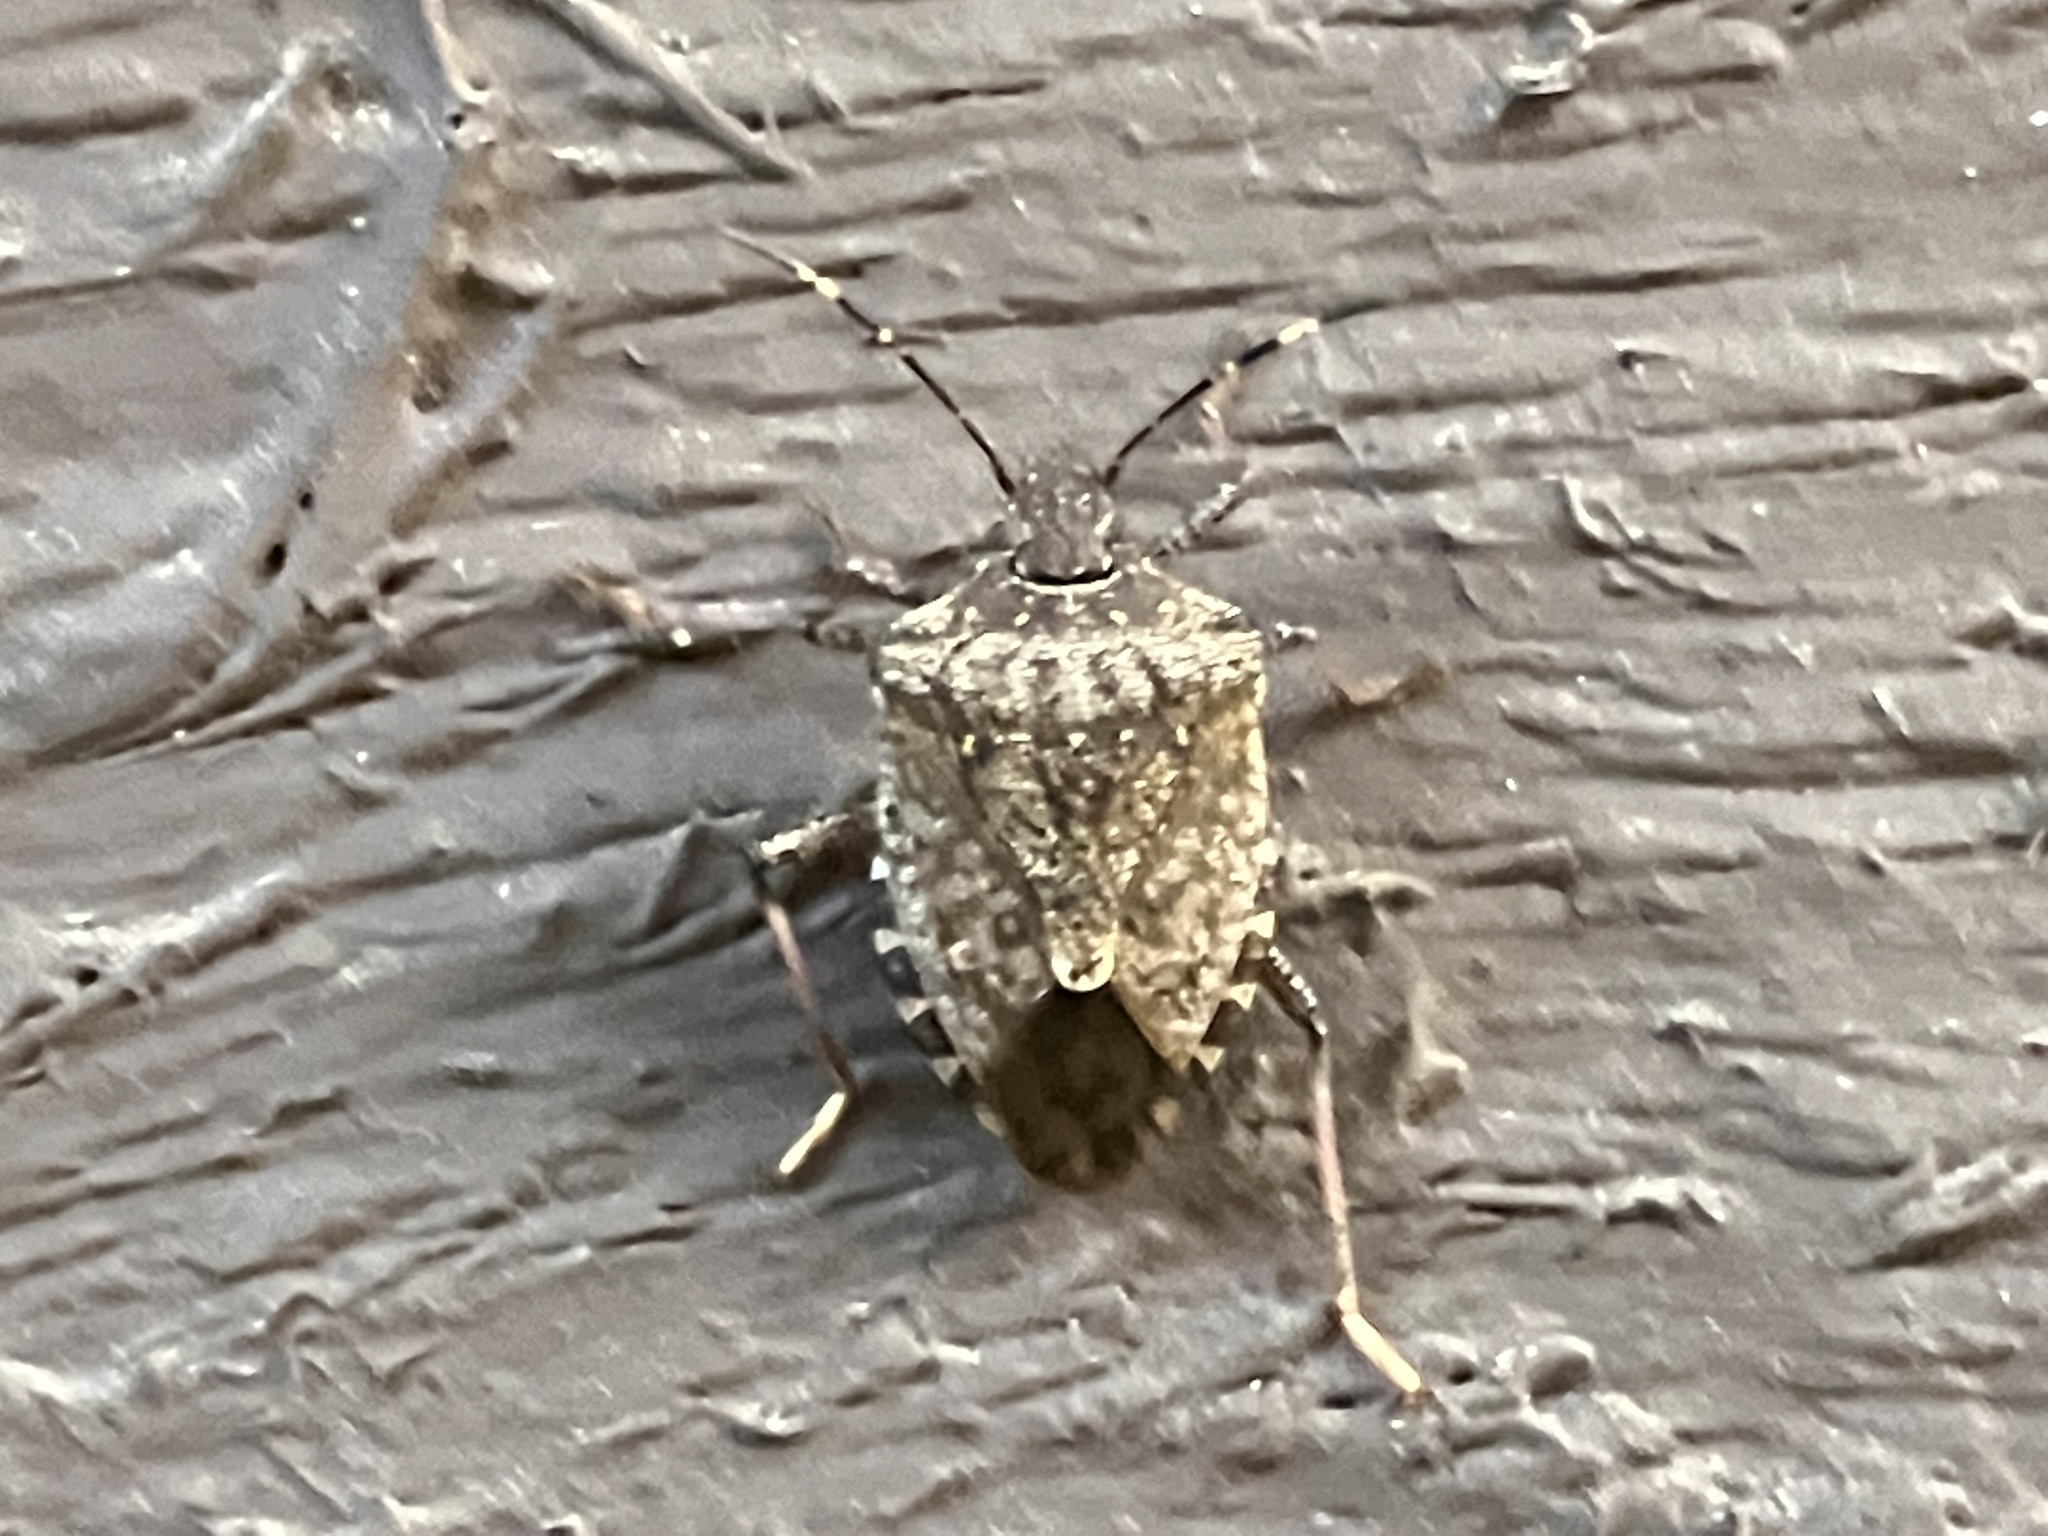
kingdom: Animalia
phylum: Arthropoda
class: Insecta
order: Hemiptera
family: Pentatomidae
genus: Halyomorpha
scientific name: Halyomorpha halys
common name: Brown marmorated stink bug
